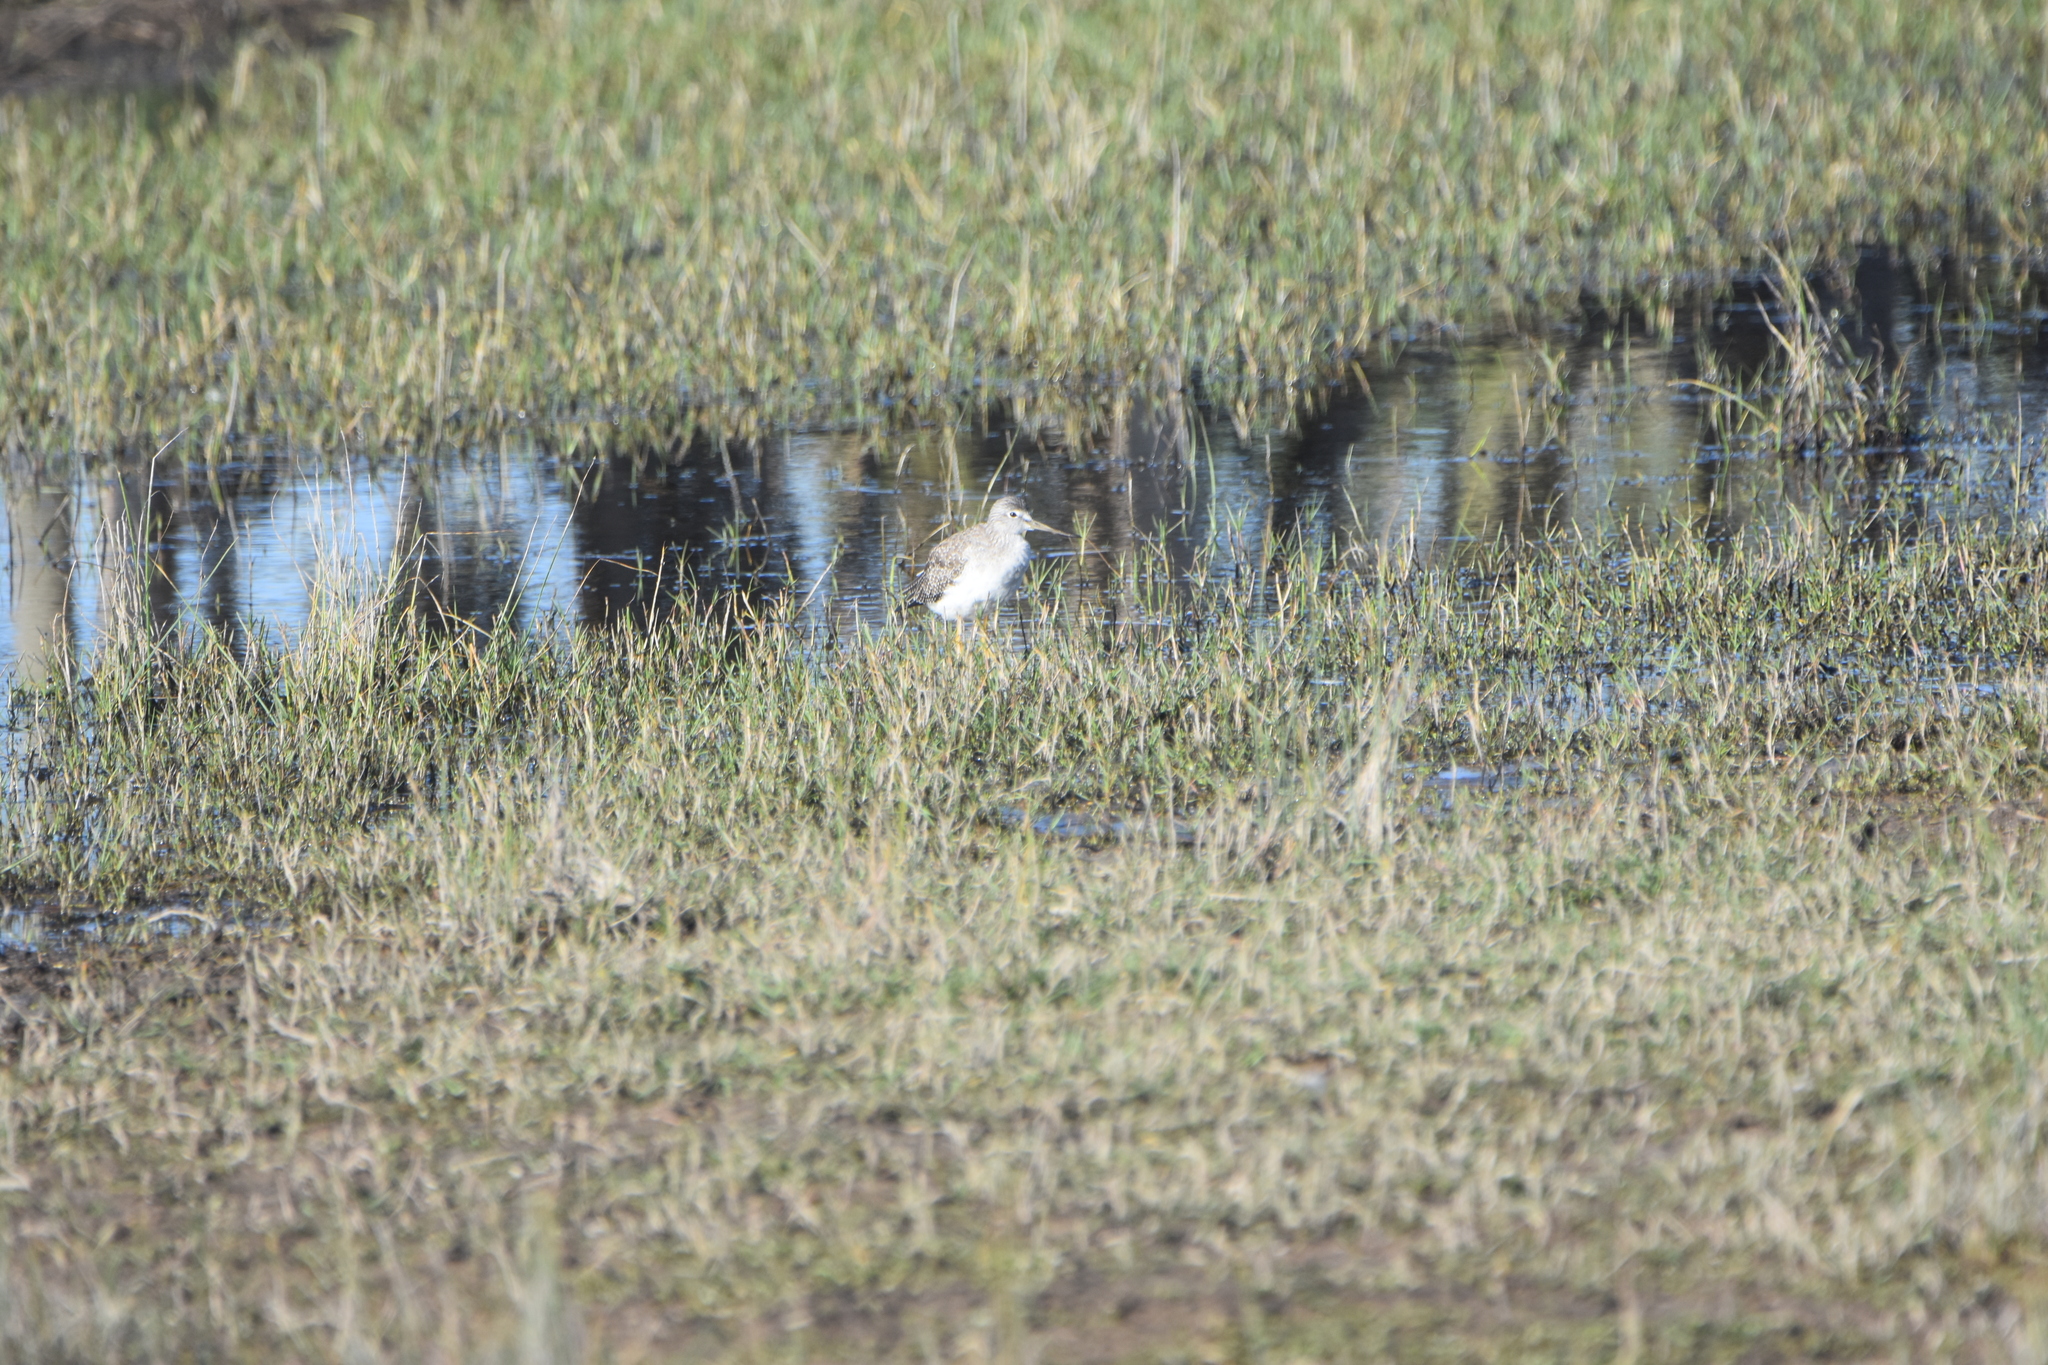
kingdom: Animalia
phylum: Chordata
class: Aves
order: Charadriiformes
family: Scolopacidae
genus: Tringa
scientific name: Tringa melanoleuca
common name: Greater yellowlegs
